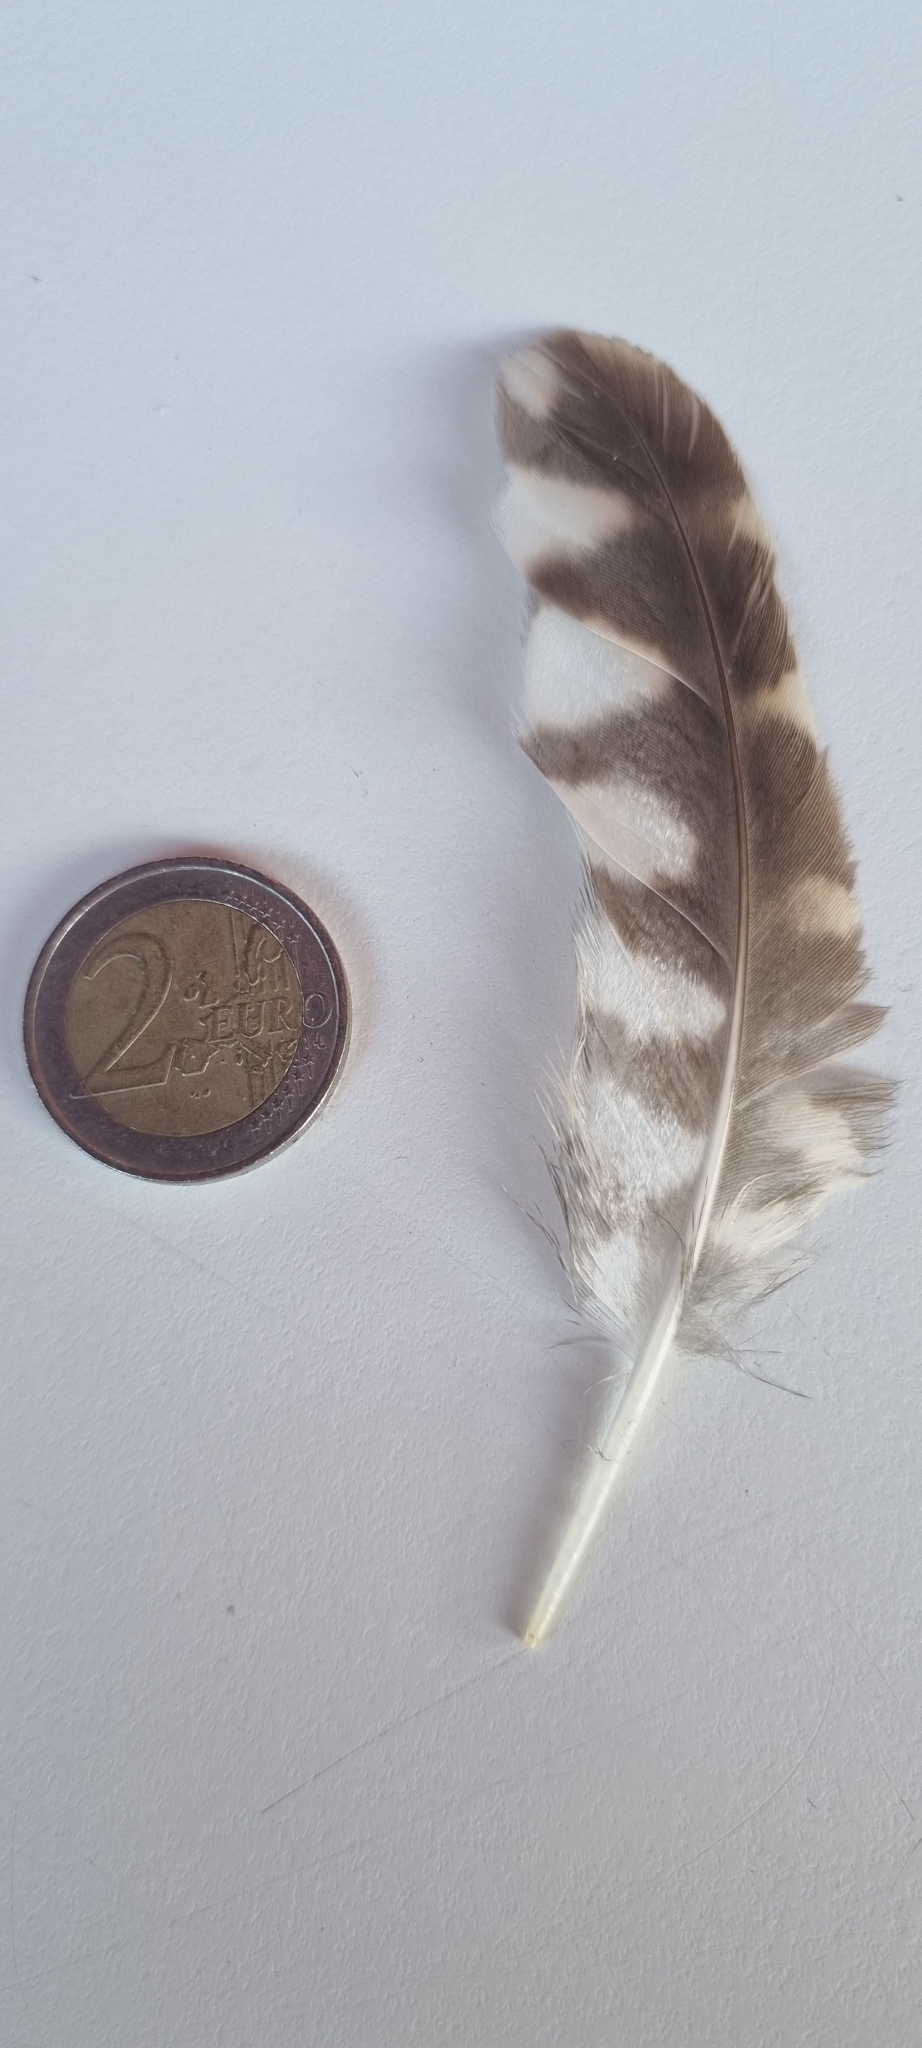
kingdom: Animalia
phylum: Chordata
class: Aves
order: Strigiformes
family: Strigidae
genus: Athene
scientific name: Athene noctua
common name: Little owl
